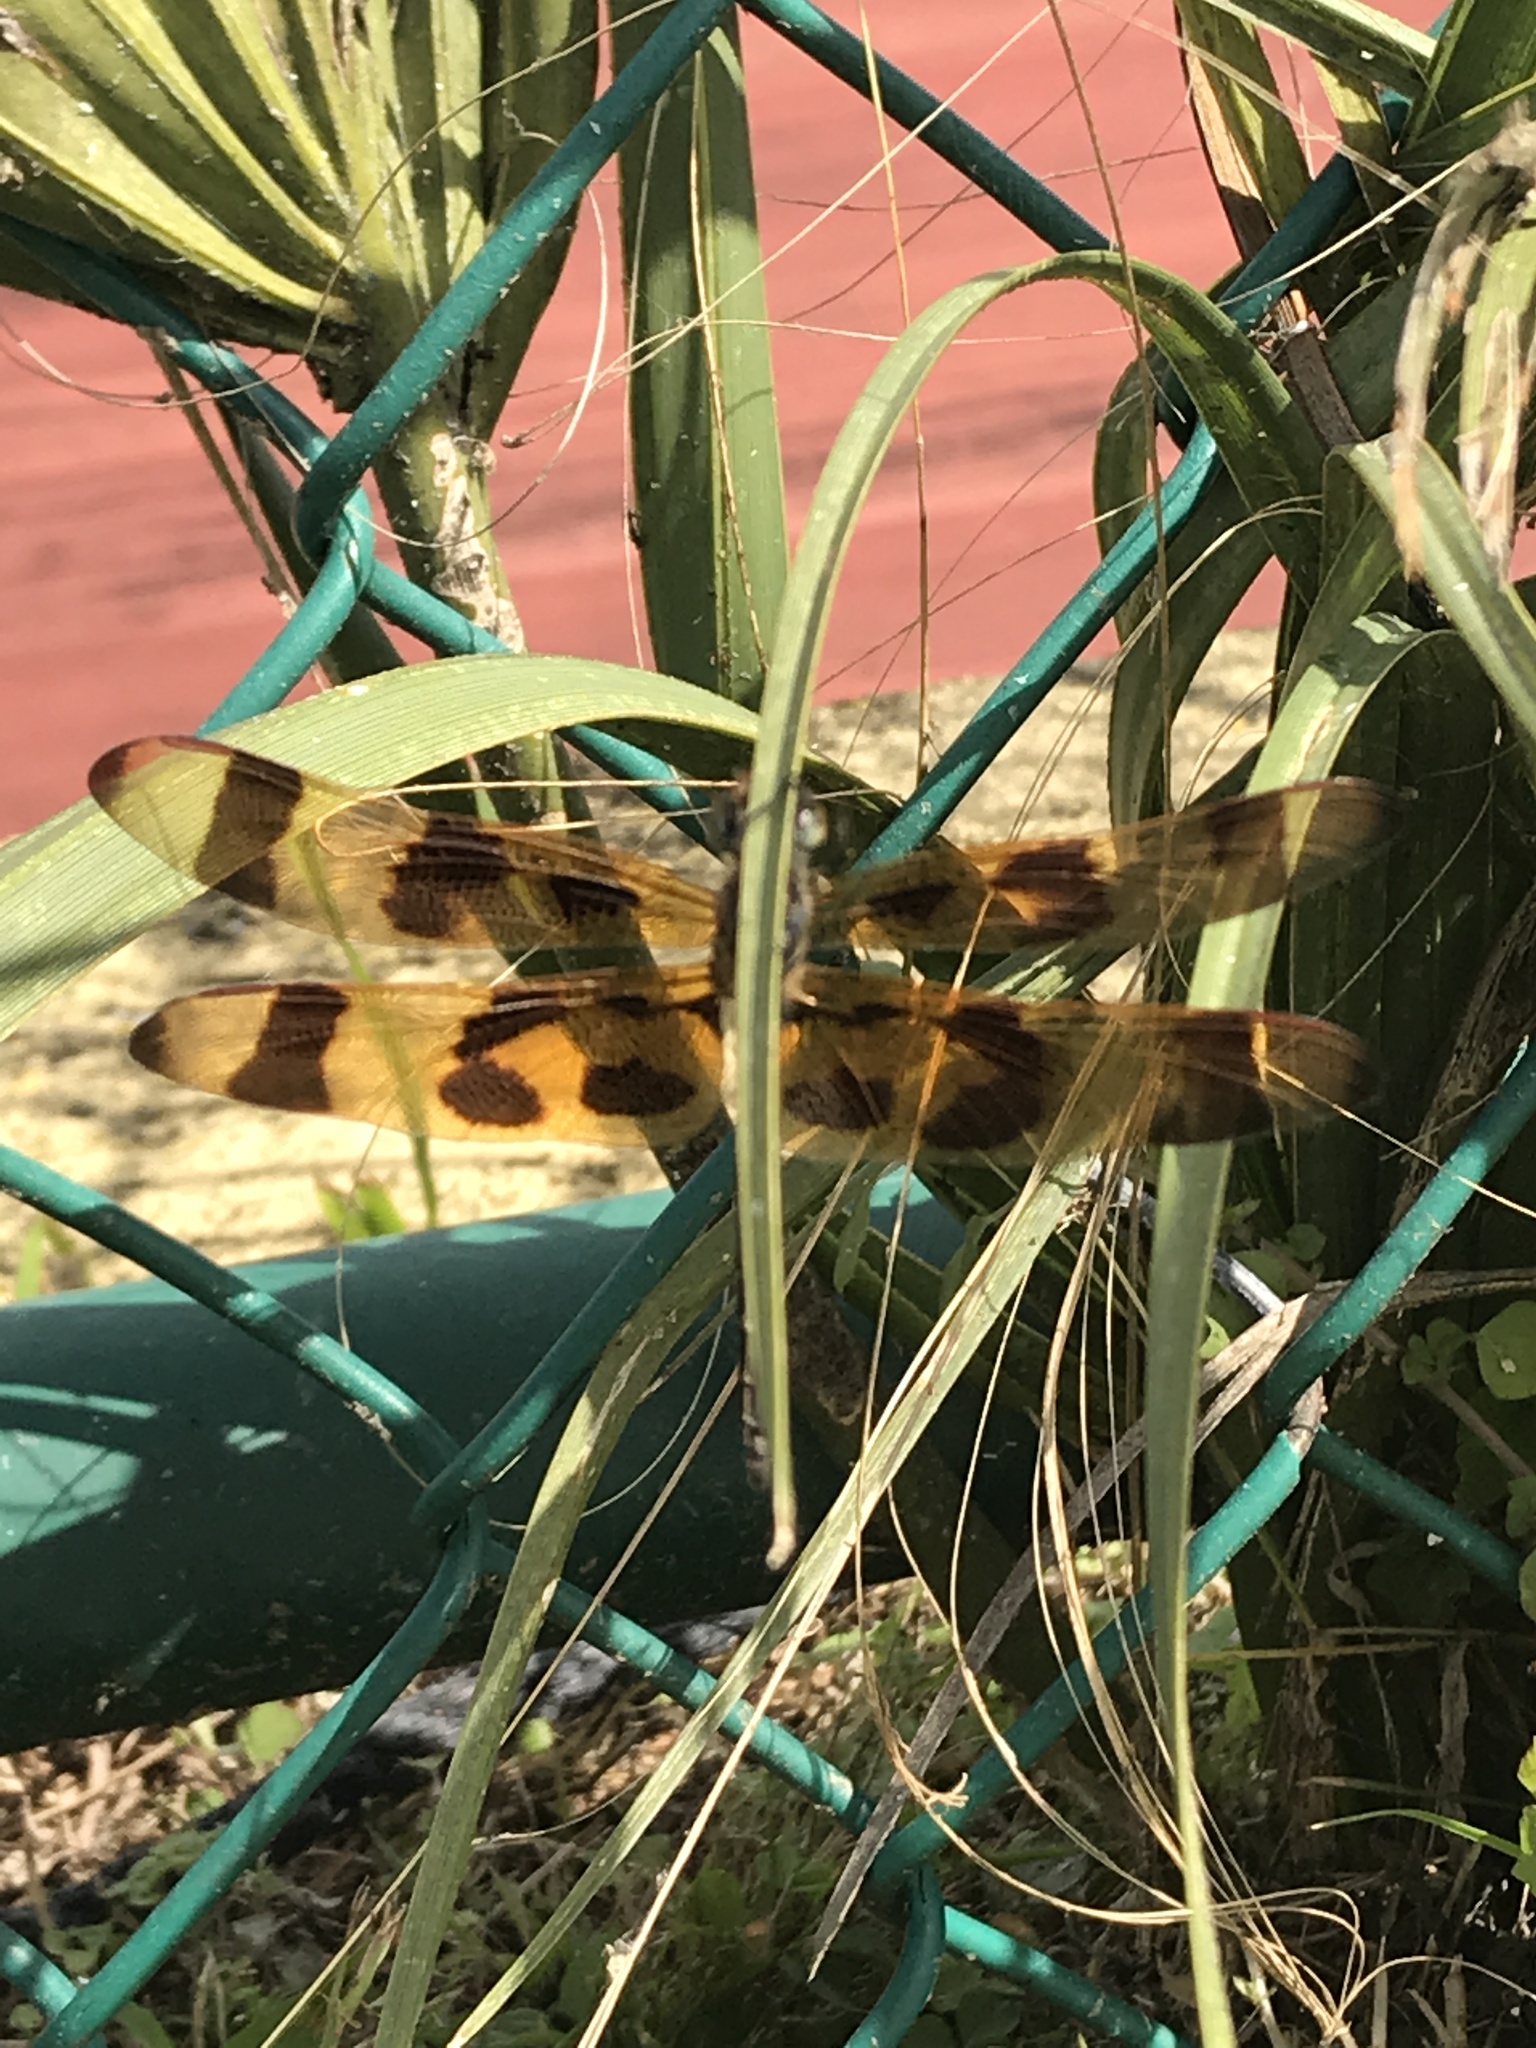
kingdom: Animalia
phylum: Arthropoda
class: Insecta
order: Odonata
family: Libellulidae
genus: Celithemis
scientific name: Celithemis eponina
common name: Halloween pennant
